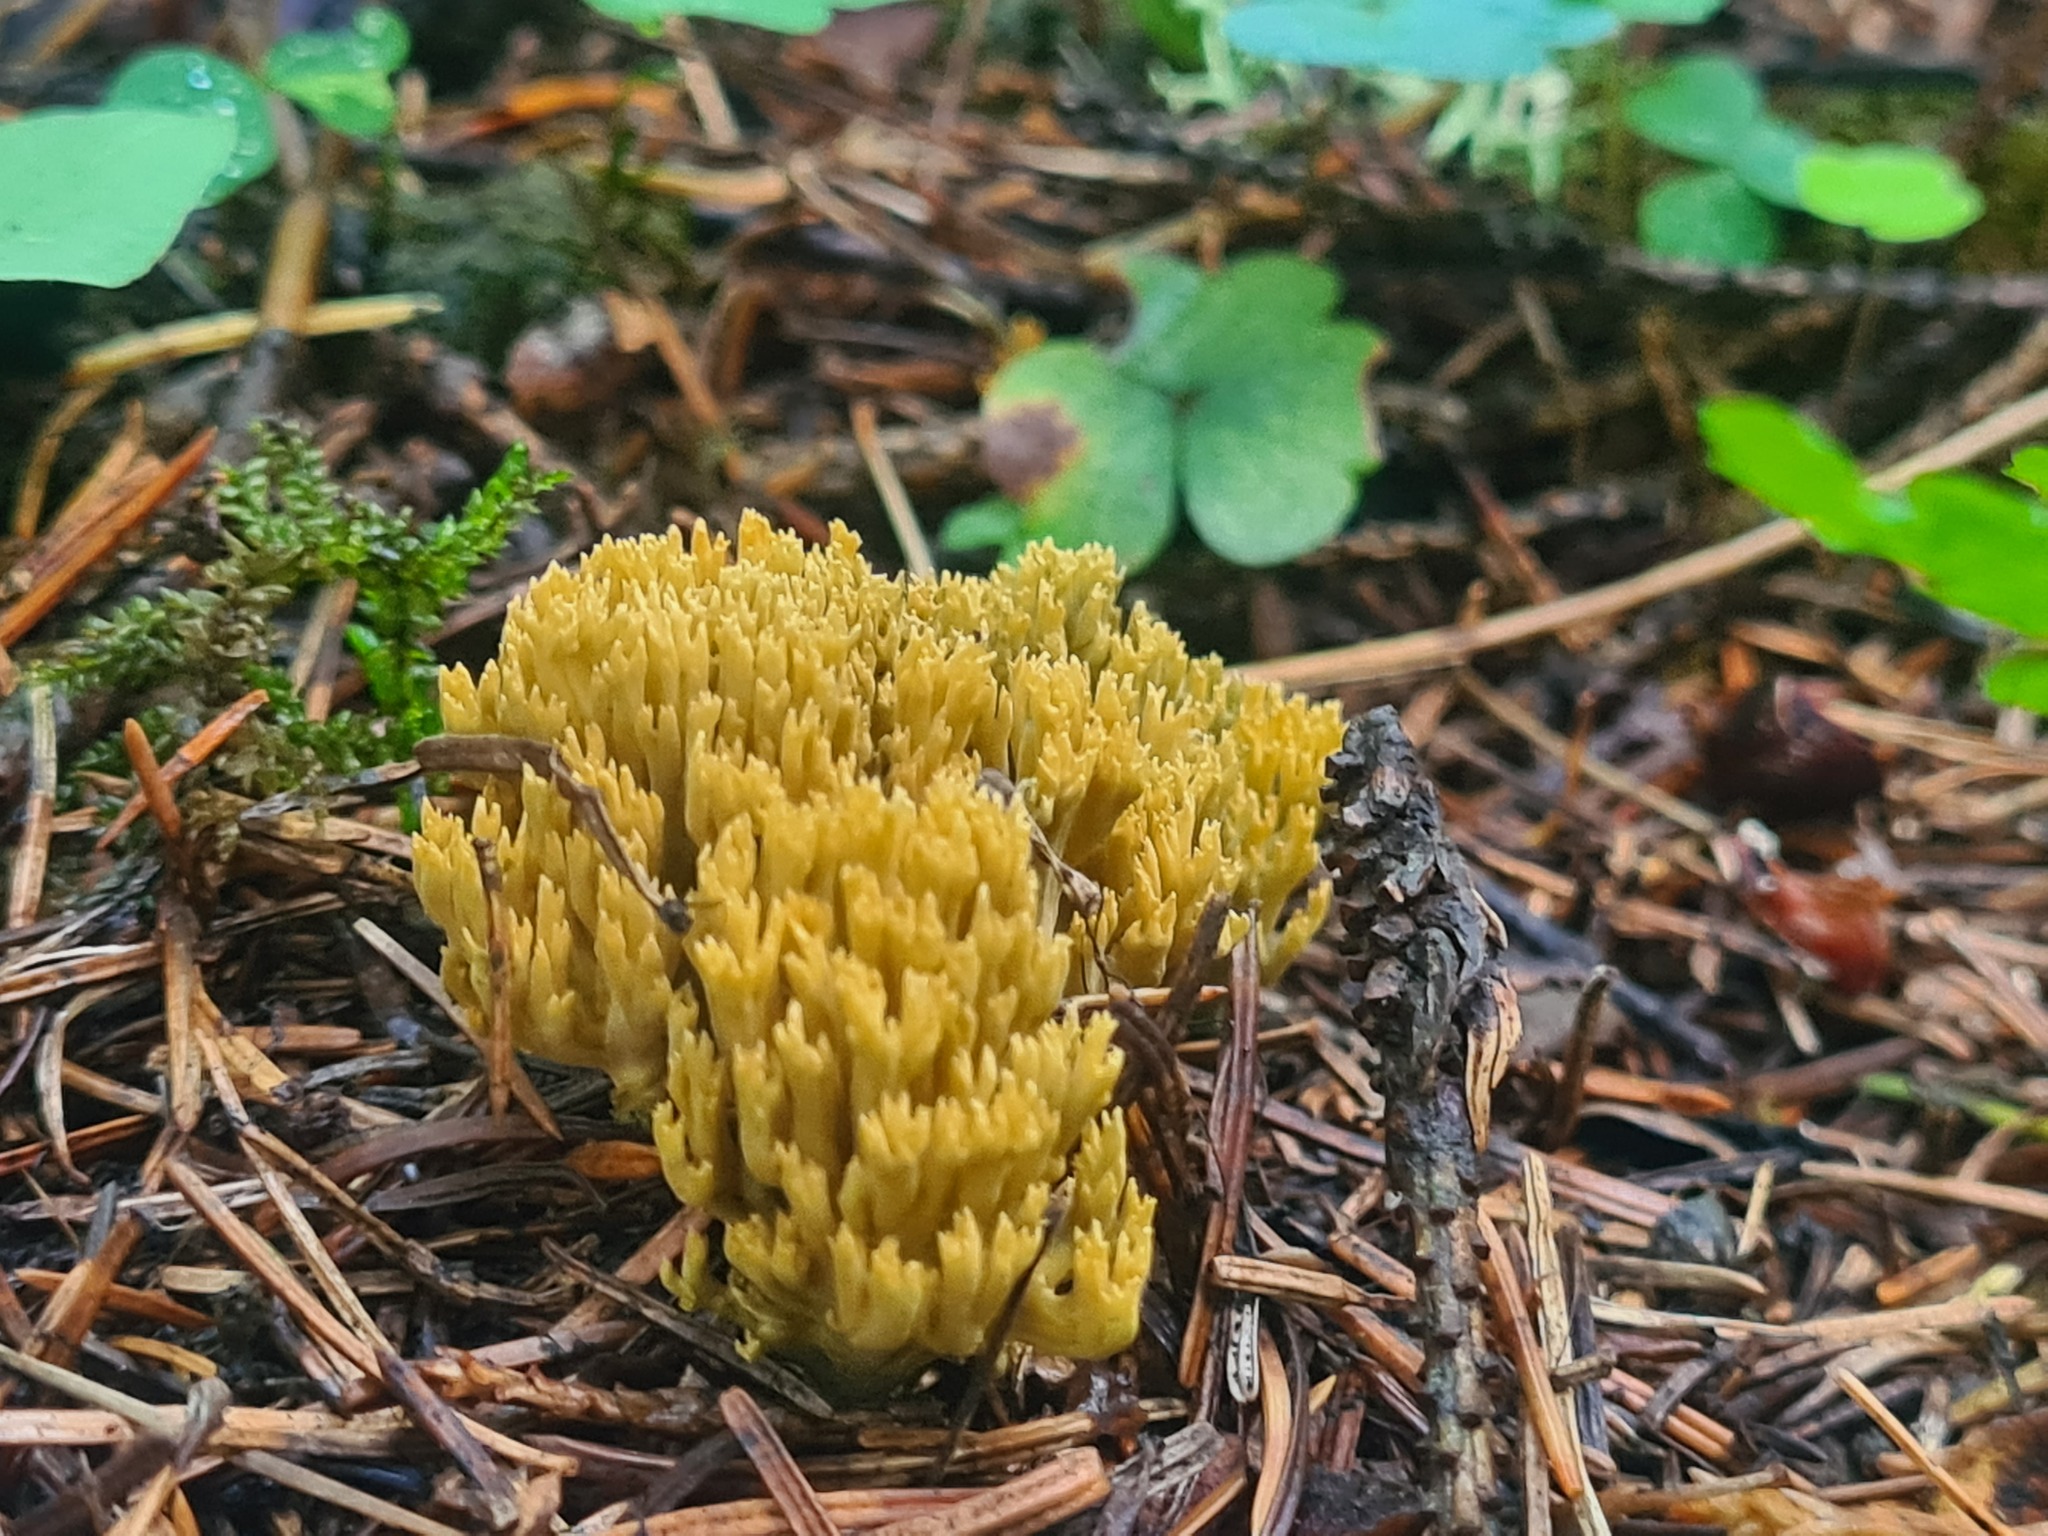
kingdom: Fungi
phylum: Basidiomycota
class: Agaricomycetes
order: Gomphales
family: Gomphaceae
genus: Phaeoclavulina
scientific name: Phaeoclavulina
